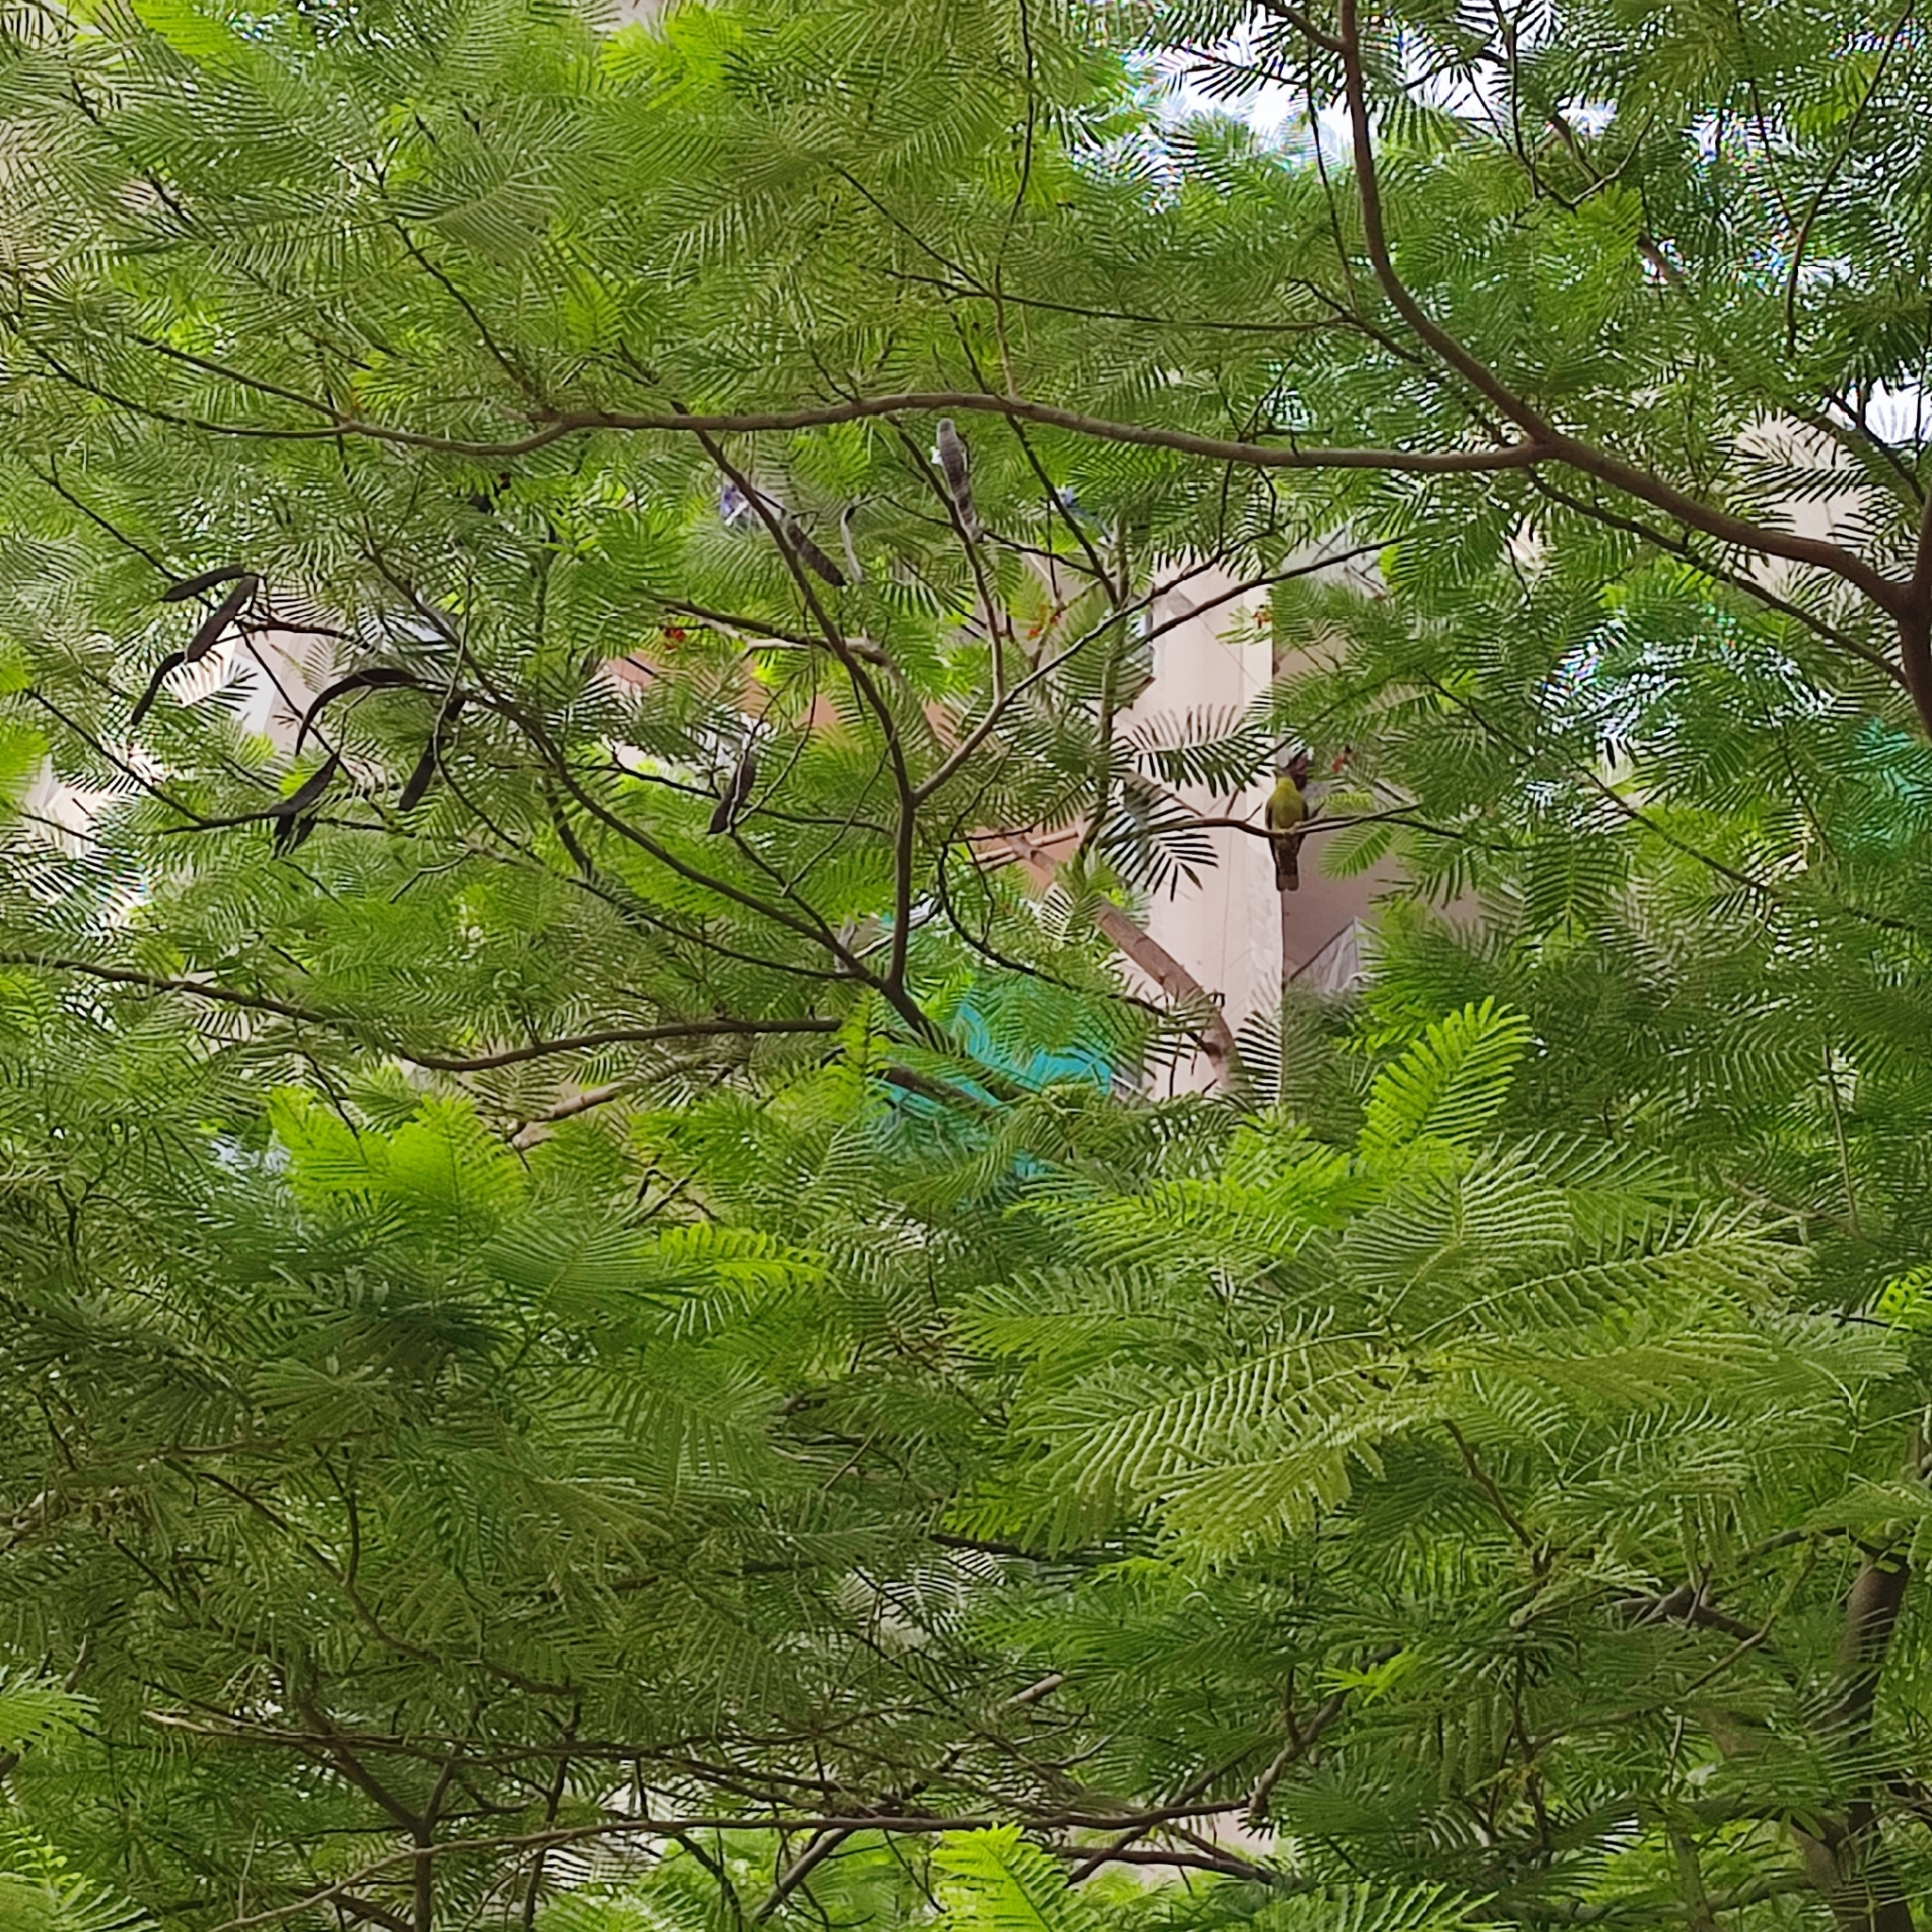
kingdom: Animalia
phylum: Chordata
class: Aves
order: Columbiformes
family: Columbidae
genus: Treron
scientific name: Treron phoenicopterus
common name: Yellow-footed green pigeon
